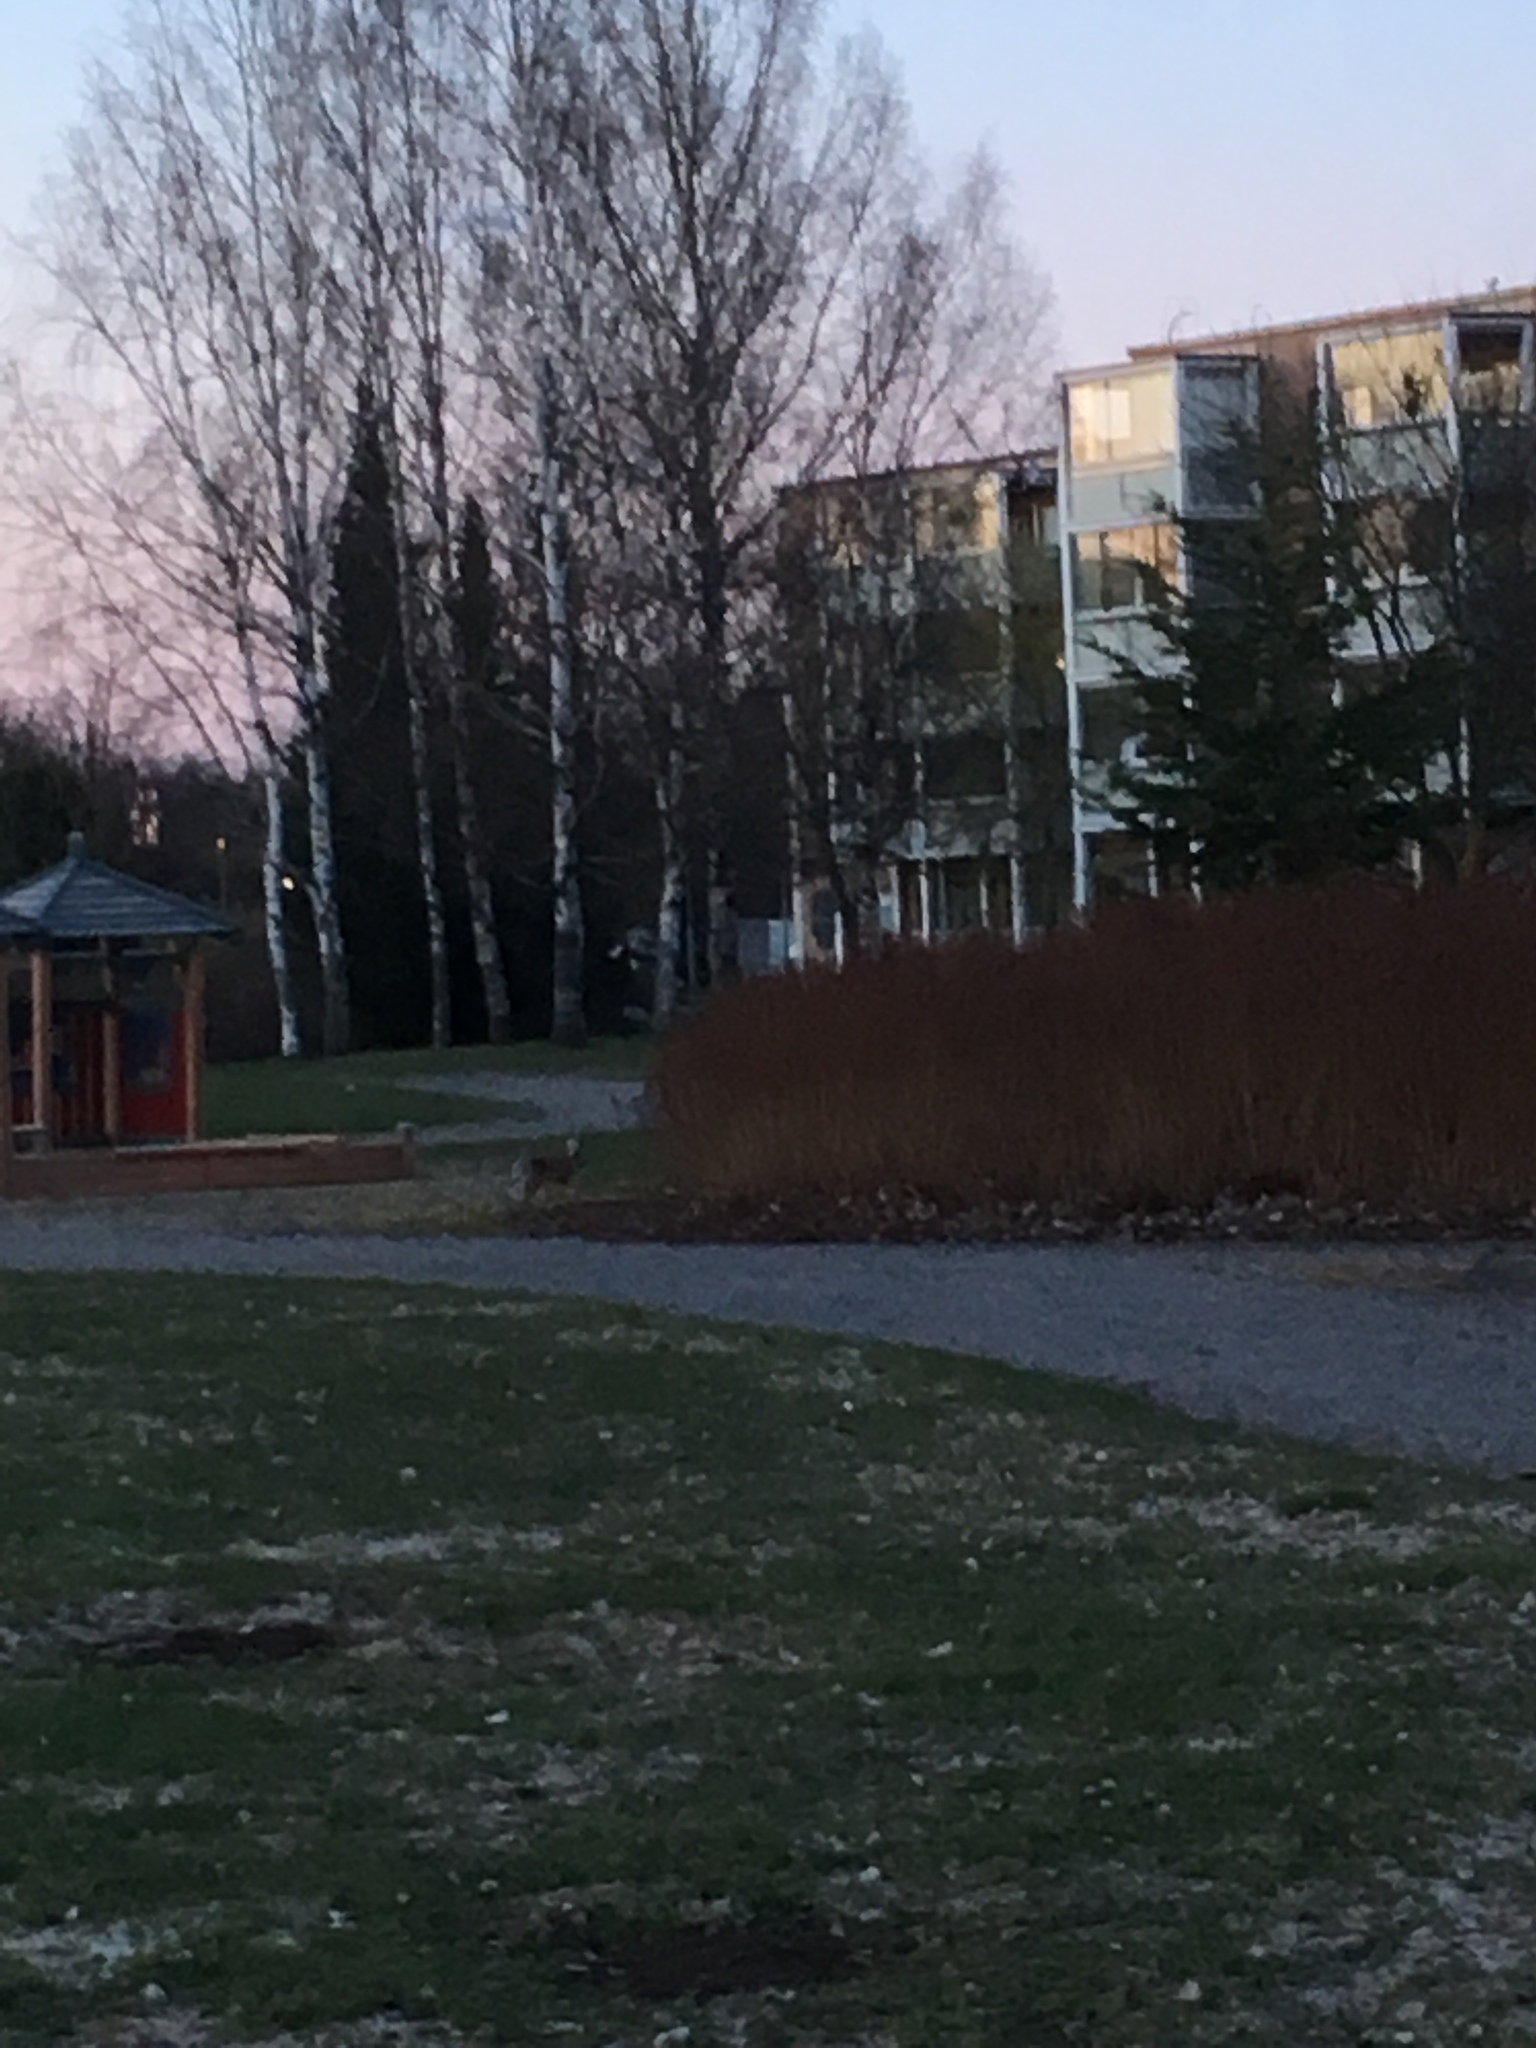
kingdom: Animalia
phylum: Chordata
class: Mammalia
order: Lagomorpha
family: Leporidae
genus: Lepus
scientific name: Lepus europaeus
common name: European hare
